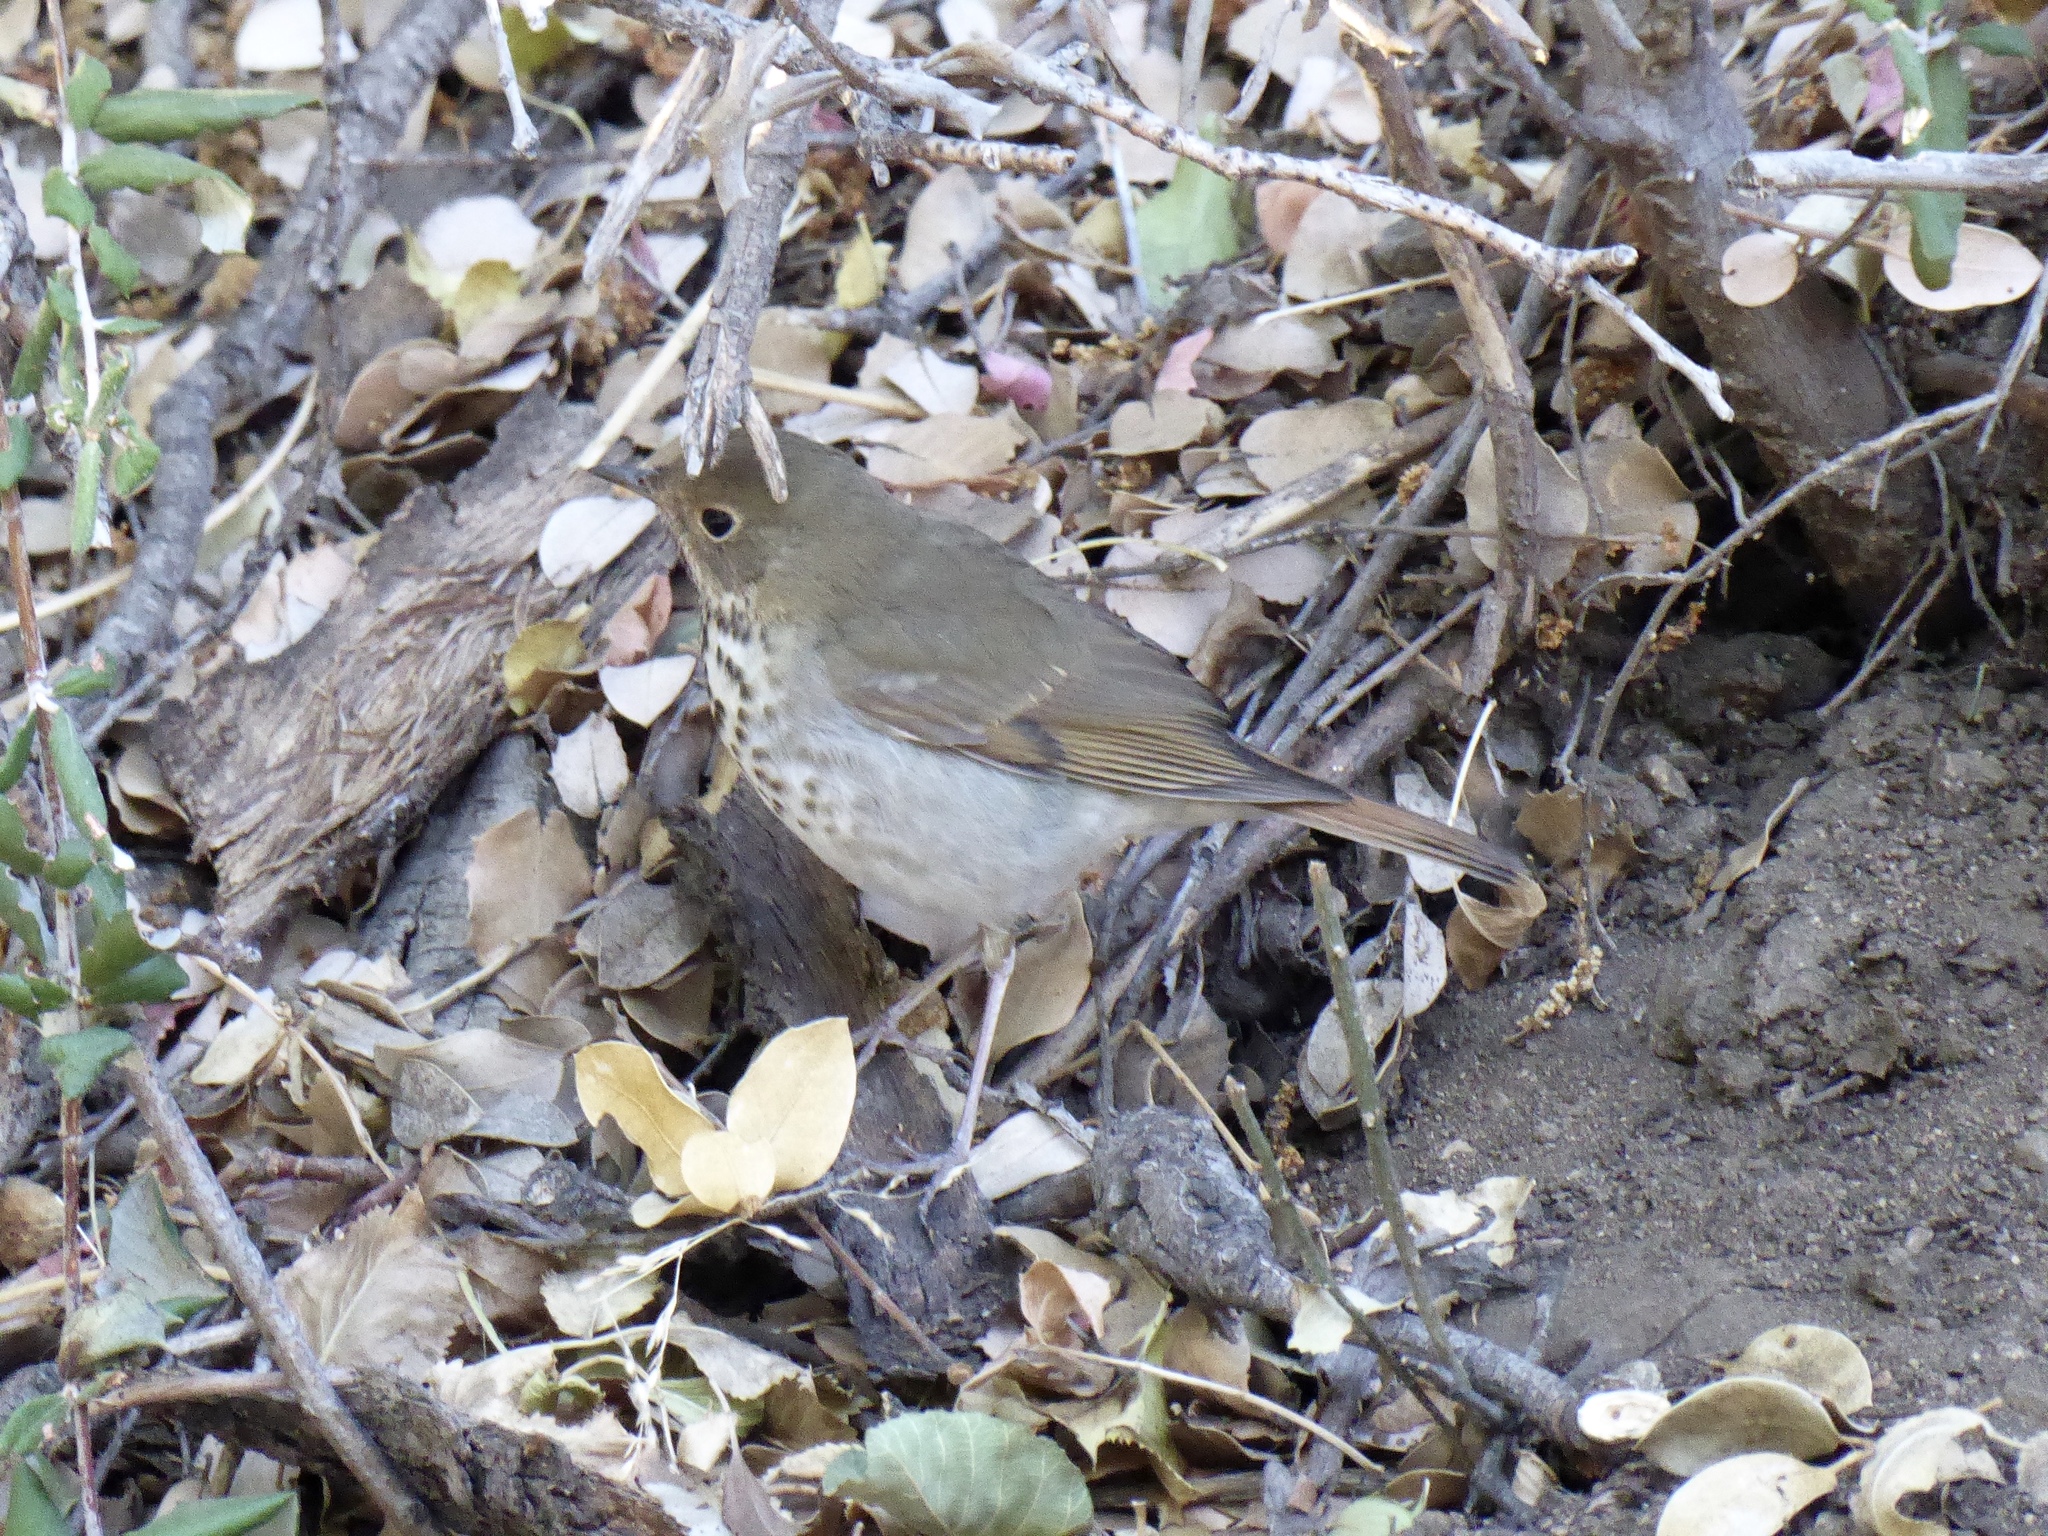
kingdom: Animalia
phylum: Chordata
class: Aves
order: Passeriformes
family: Turdidae
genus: Catharus
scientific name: Catharus guttatus
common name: Hermit thrush
